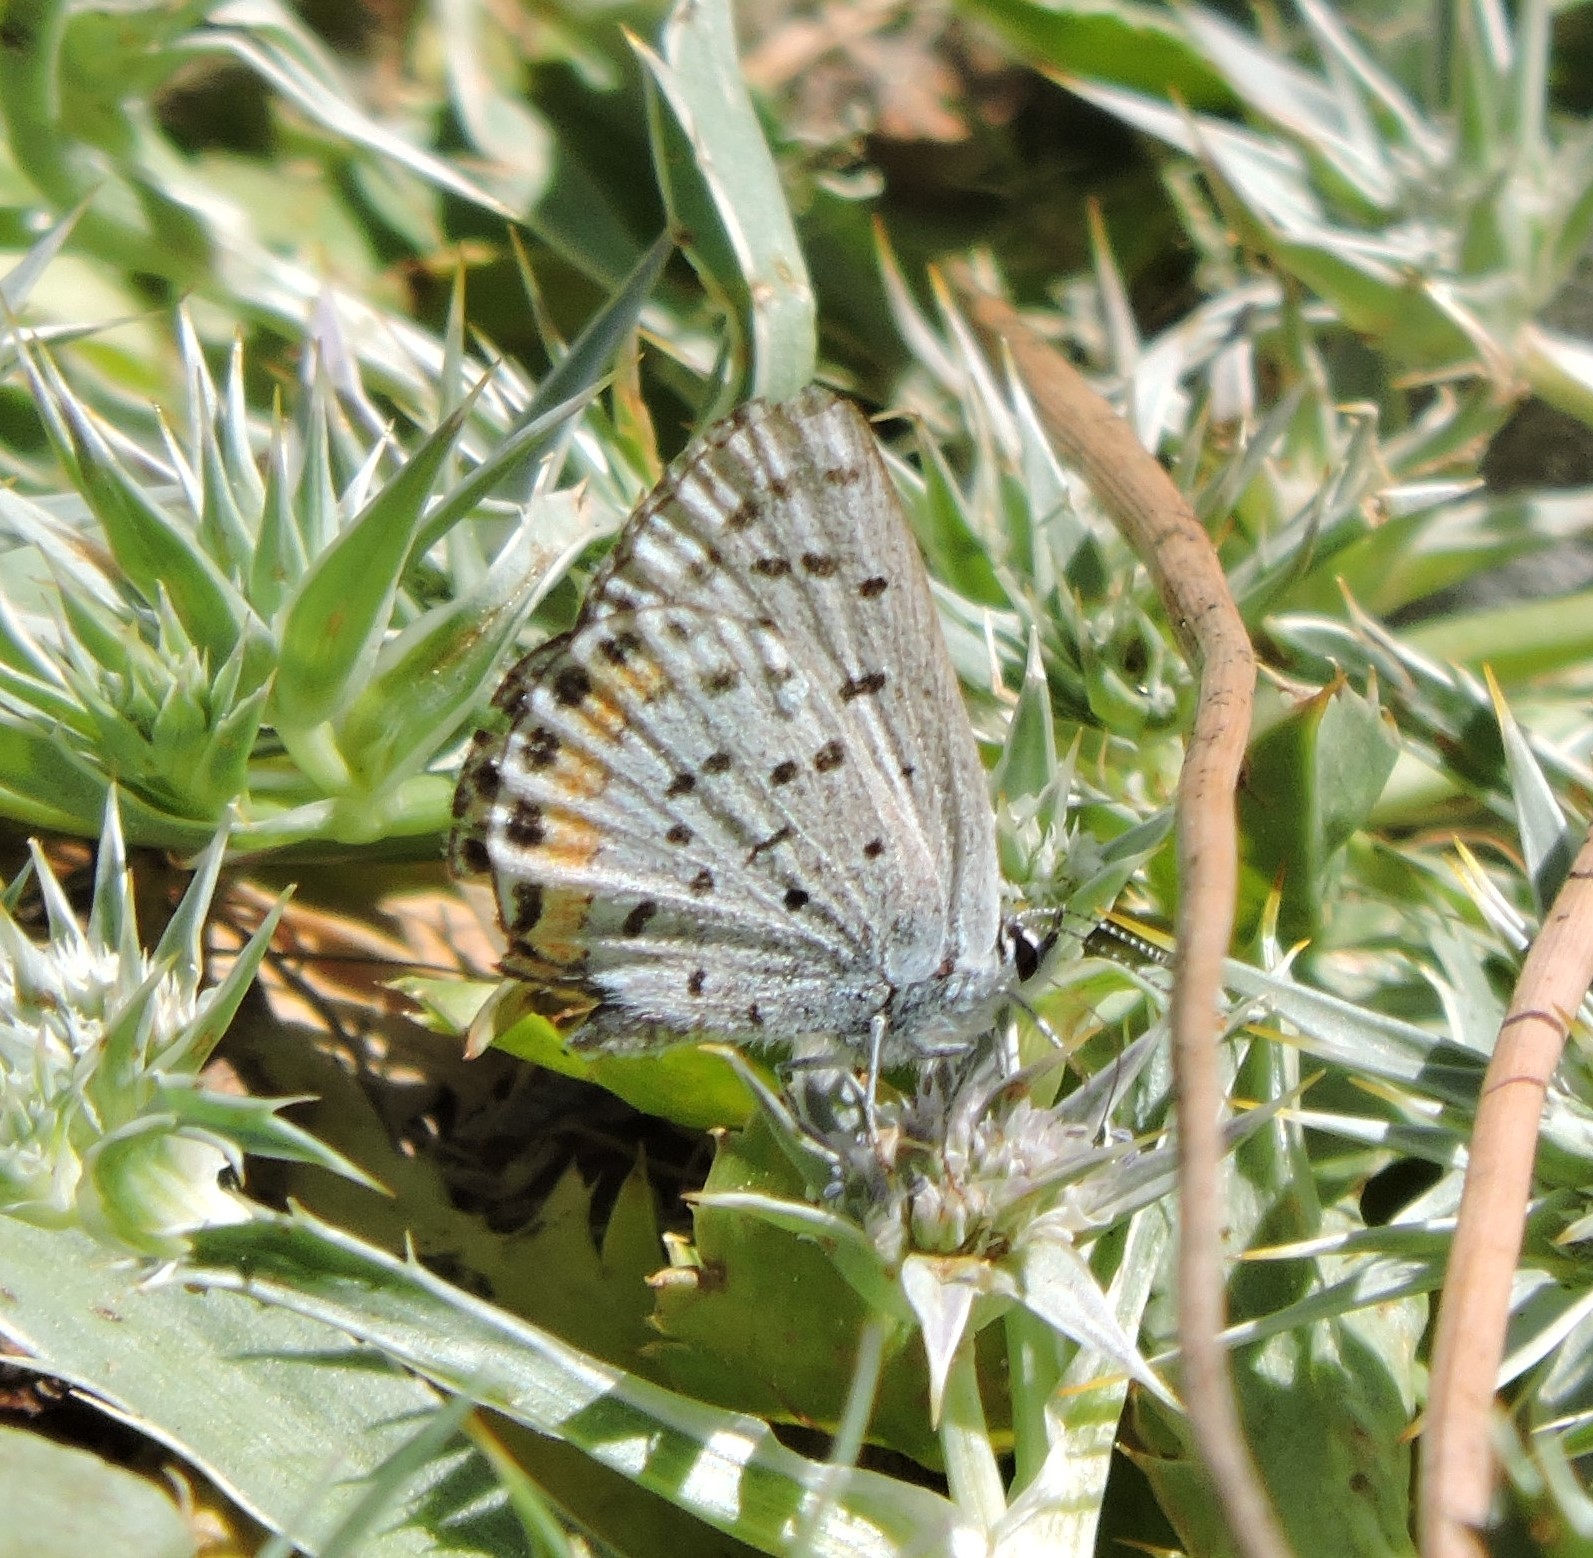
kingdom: Animalia
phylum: Arthropoda
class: Insecta
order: Lepidoptera
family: Lycaenidae
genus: Icaricia
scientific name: Icaricia acmon
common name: Acmon blue
